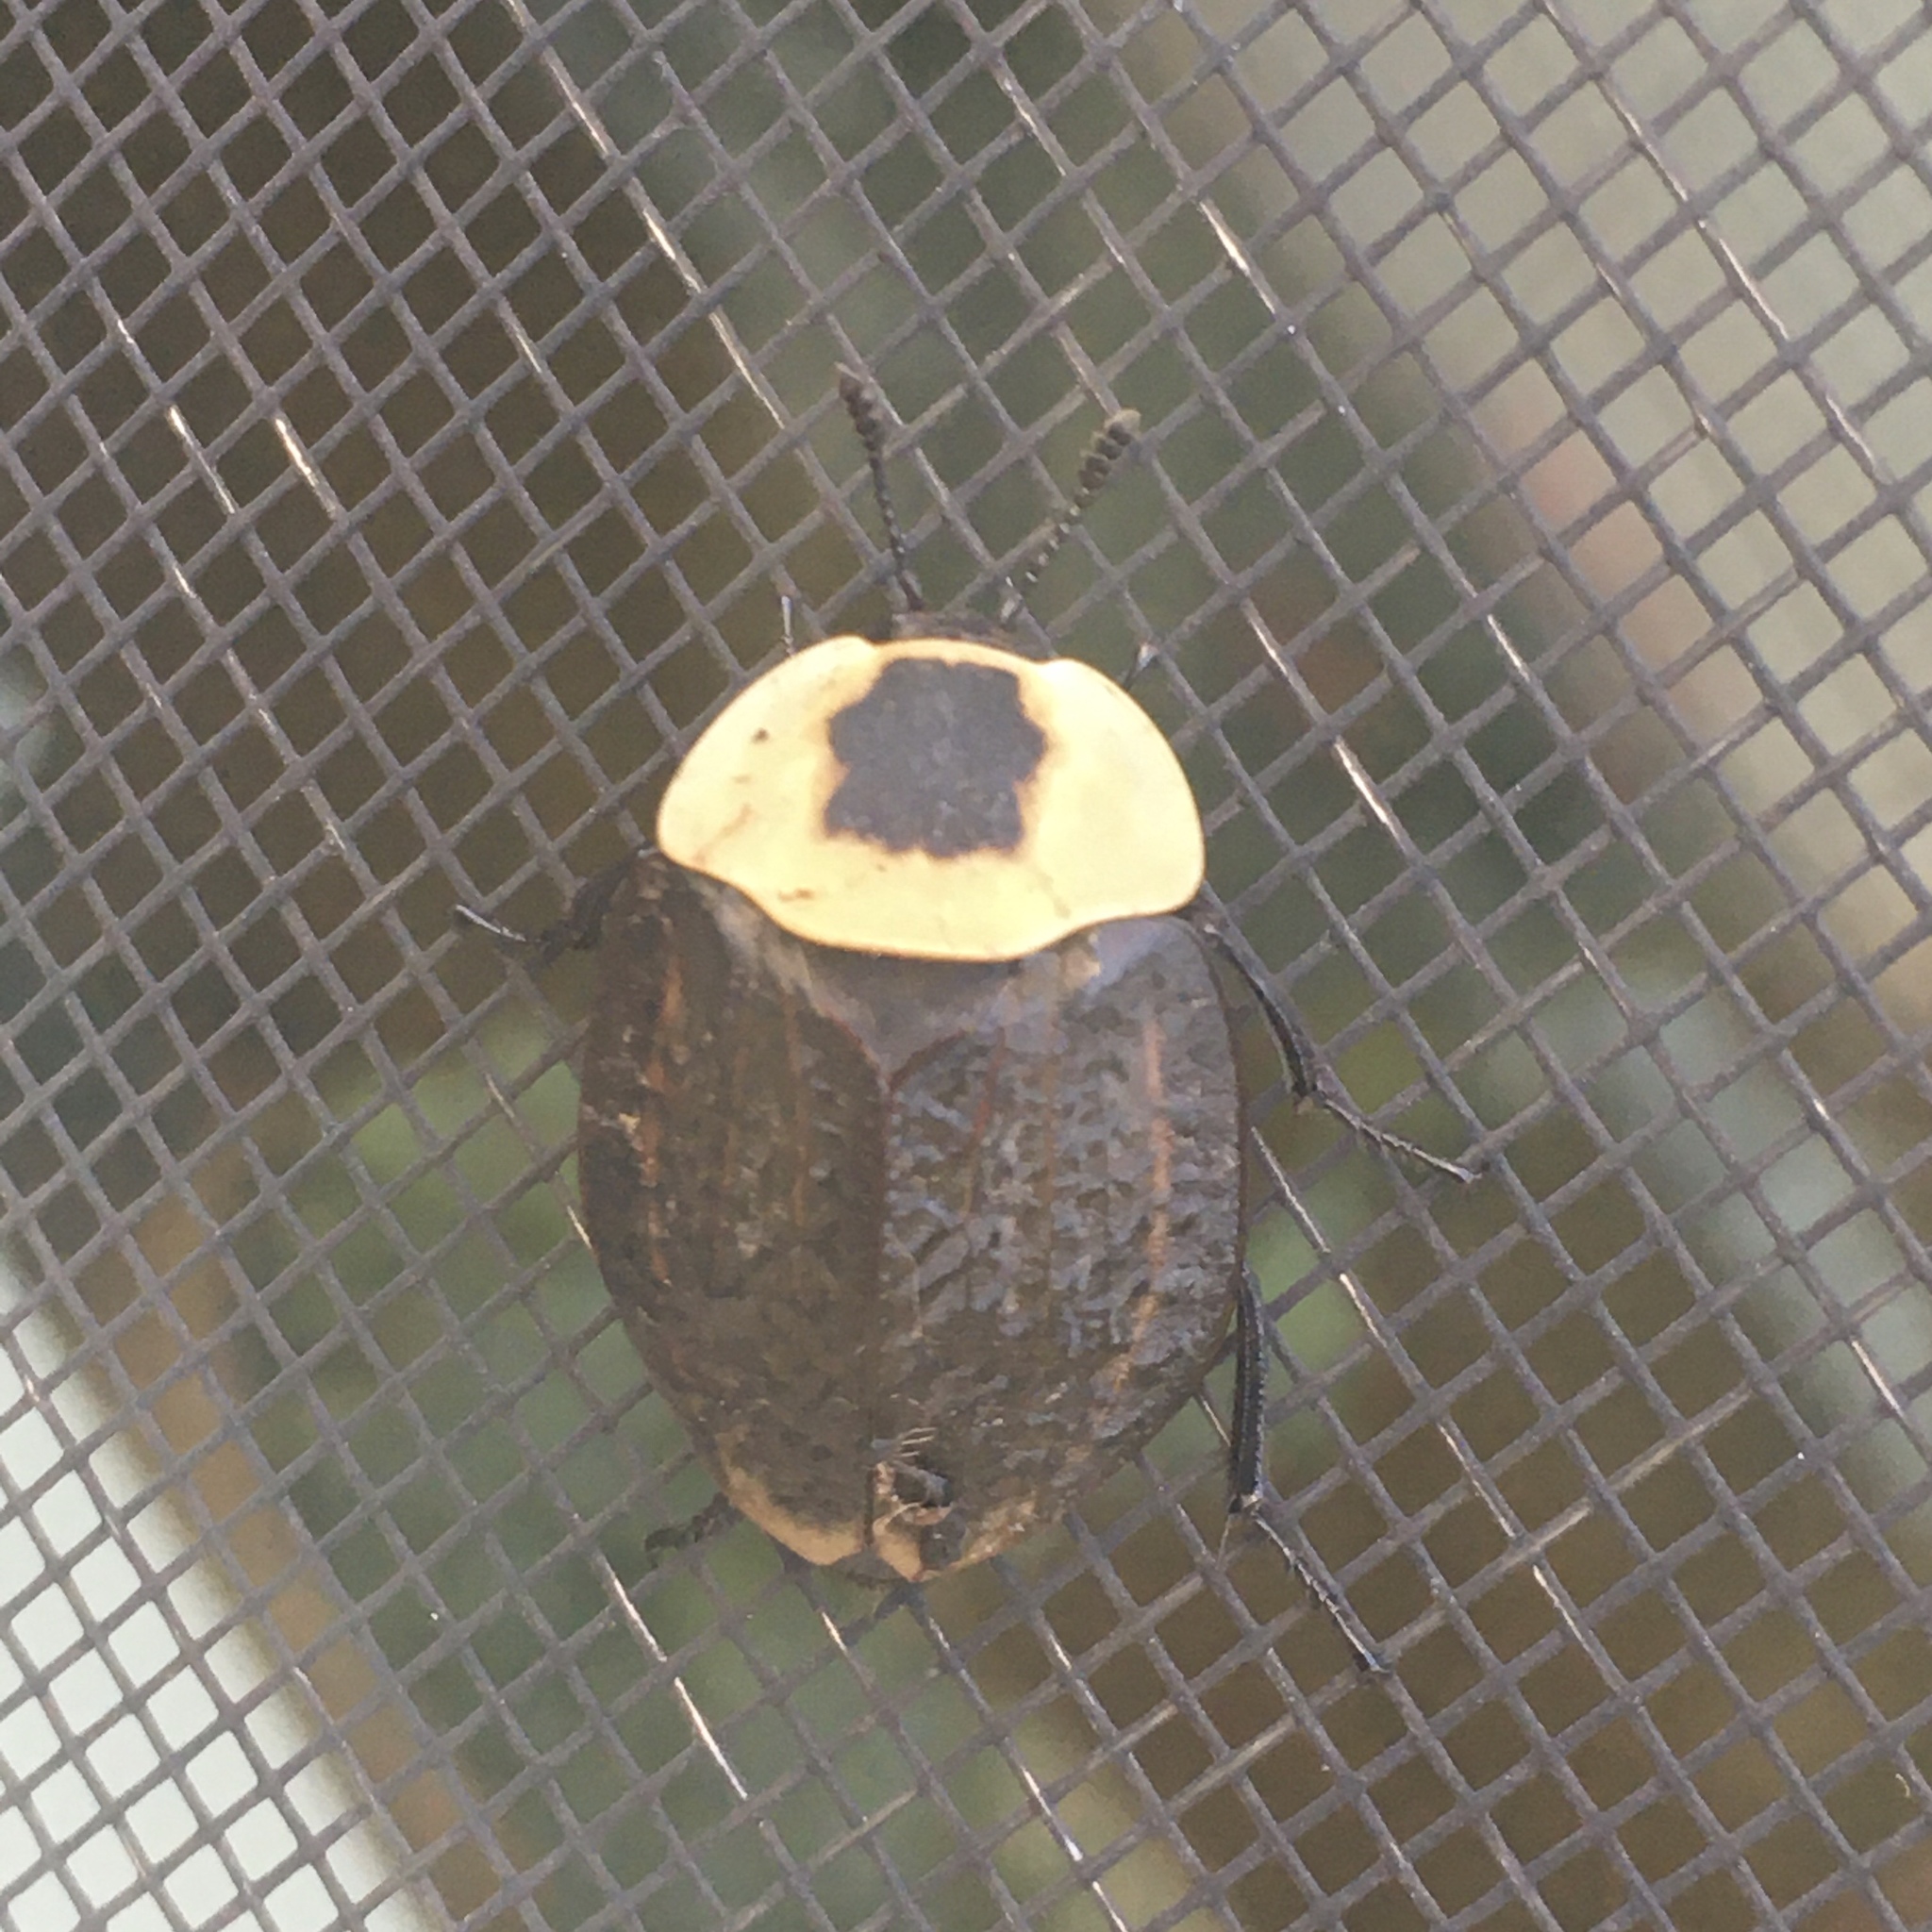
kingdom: Animalia
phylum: Arthropoda
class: Insecta
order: Coleoptera
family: Staphylinidae
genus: Necrophila
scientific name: Necrophila americana
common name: American carrion beetle
